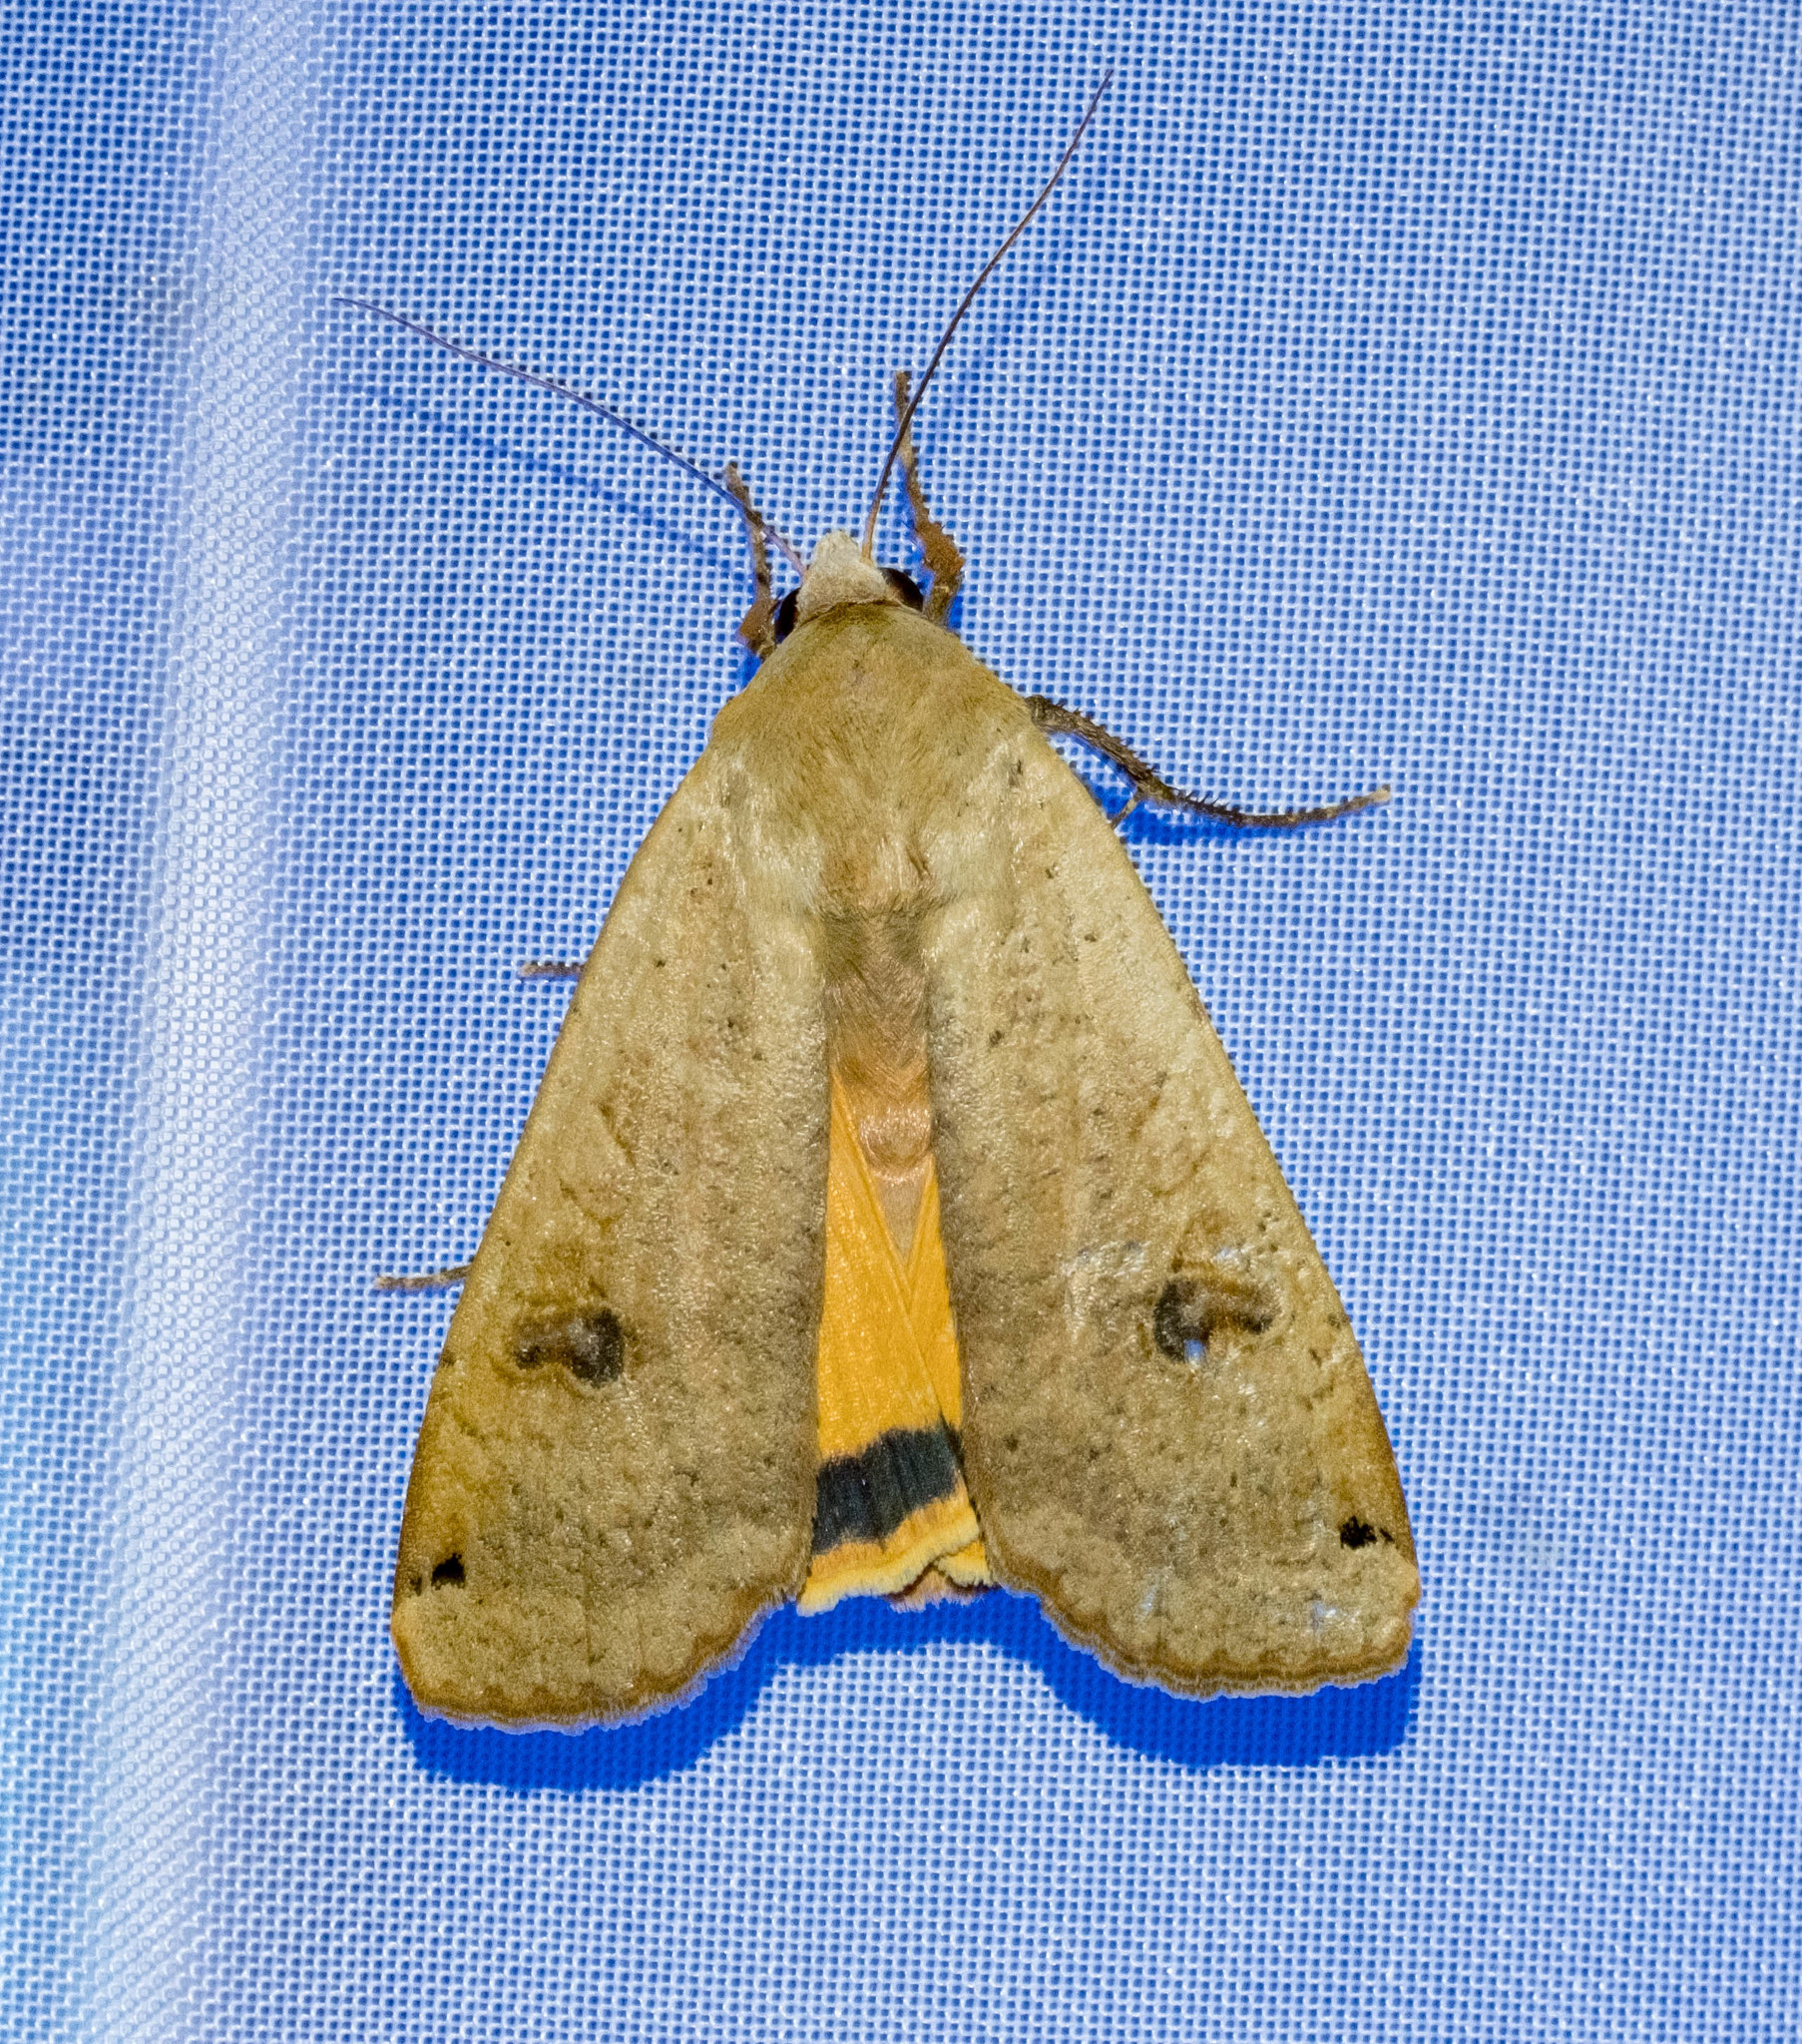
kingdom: Animalia
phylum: Arthropoda
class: Insecta
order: Lepidoptera
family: Noctuidae
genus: Noctua
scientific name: Noctua pronuba
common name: Large yellow underwing
